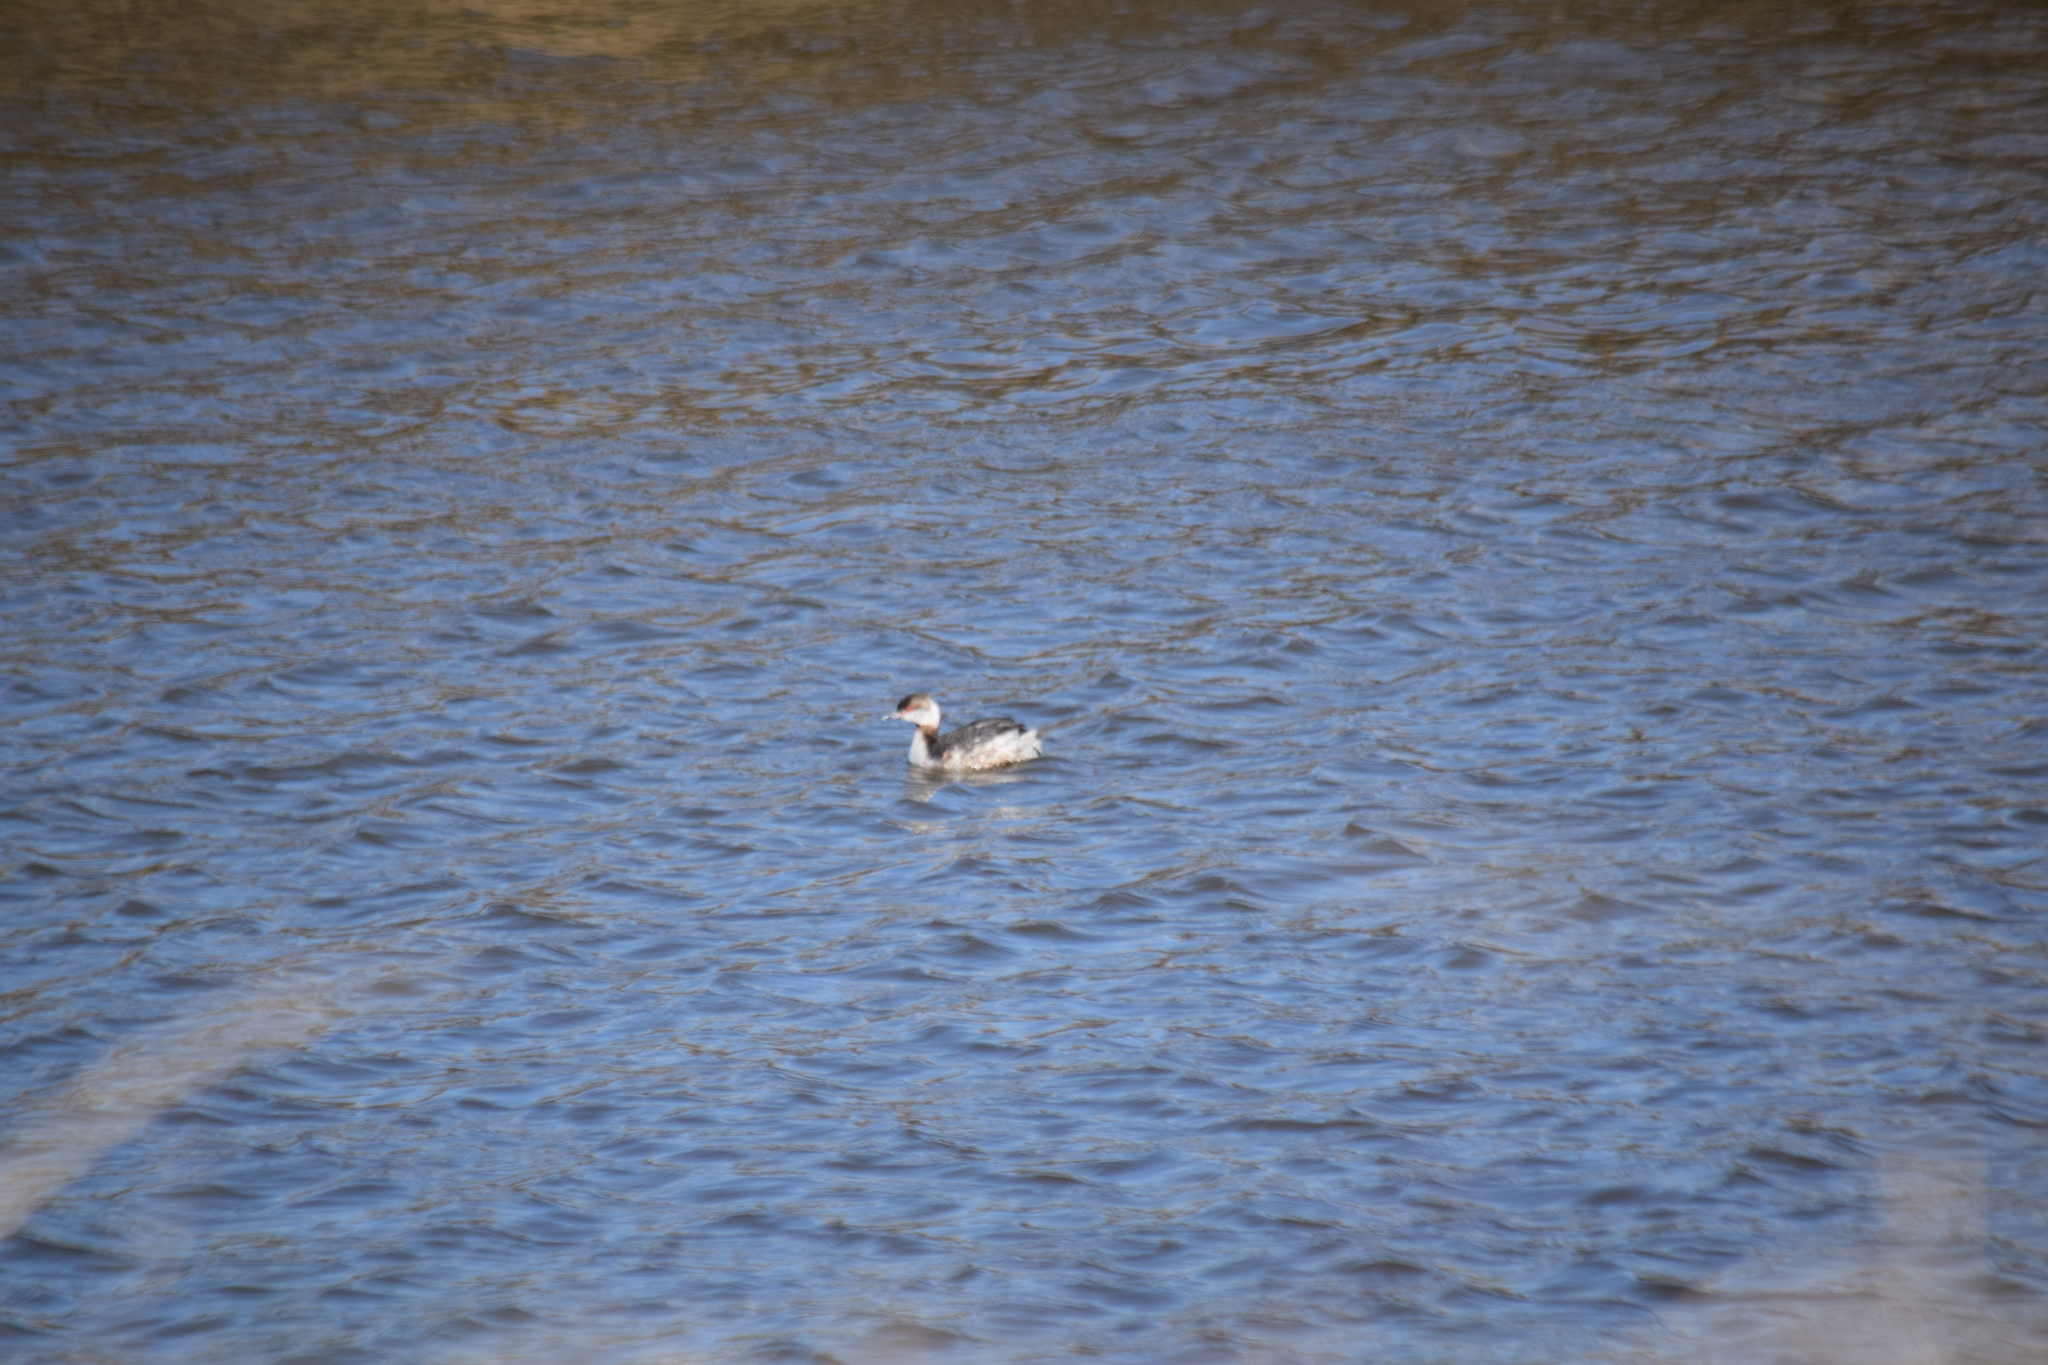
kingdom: Animalia
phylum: Chordata
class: Aves
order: Podicipediformes
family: Podicipedidae
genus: Podiceps
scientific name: Podiceps auritus
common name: Horned grebe
